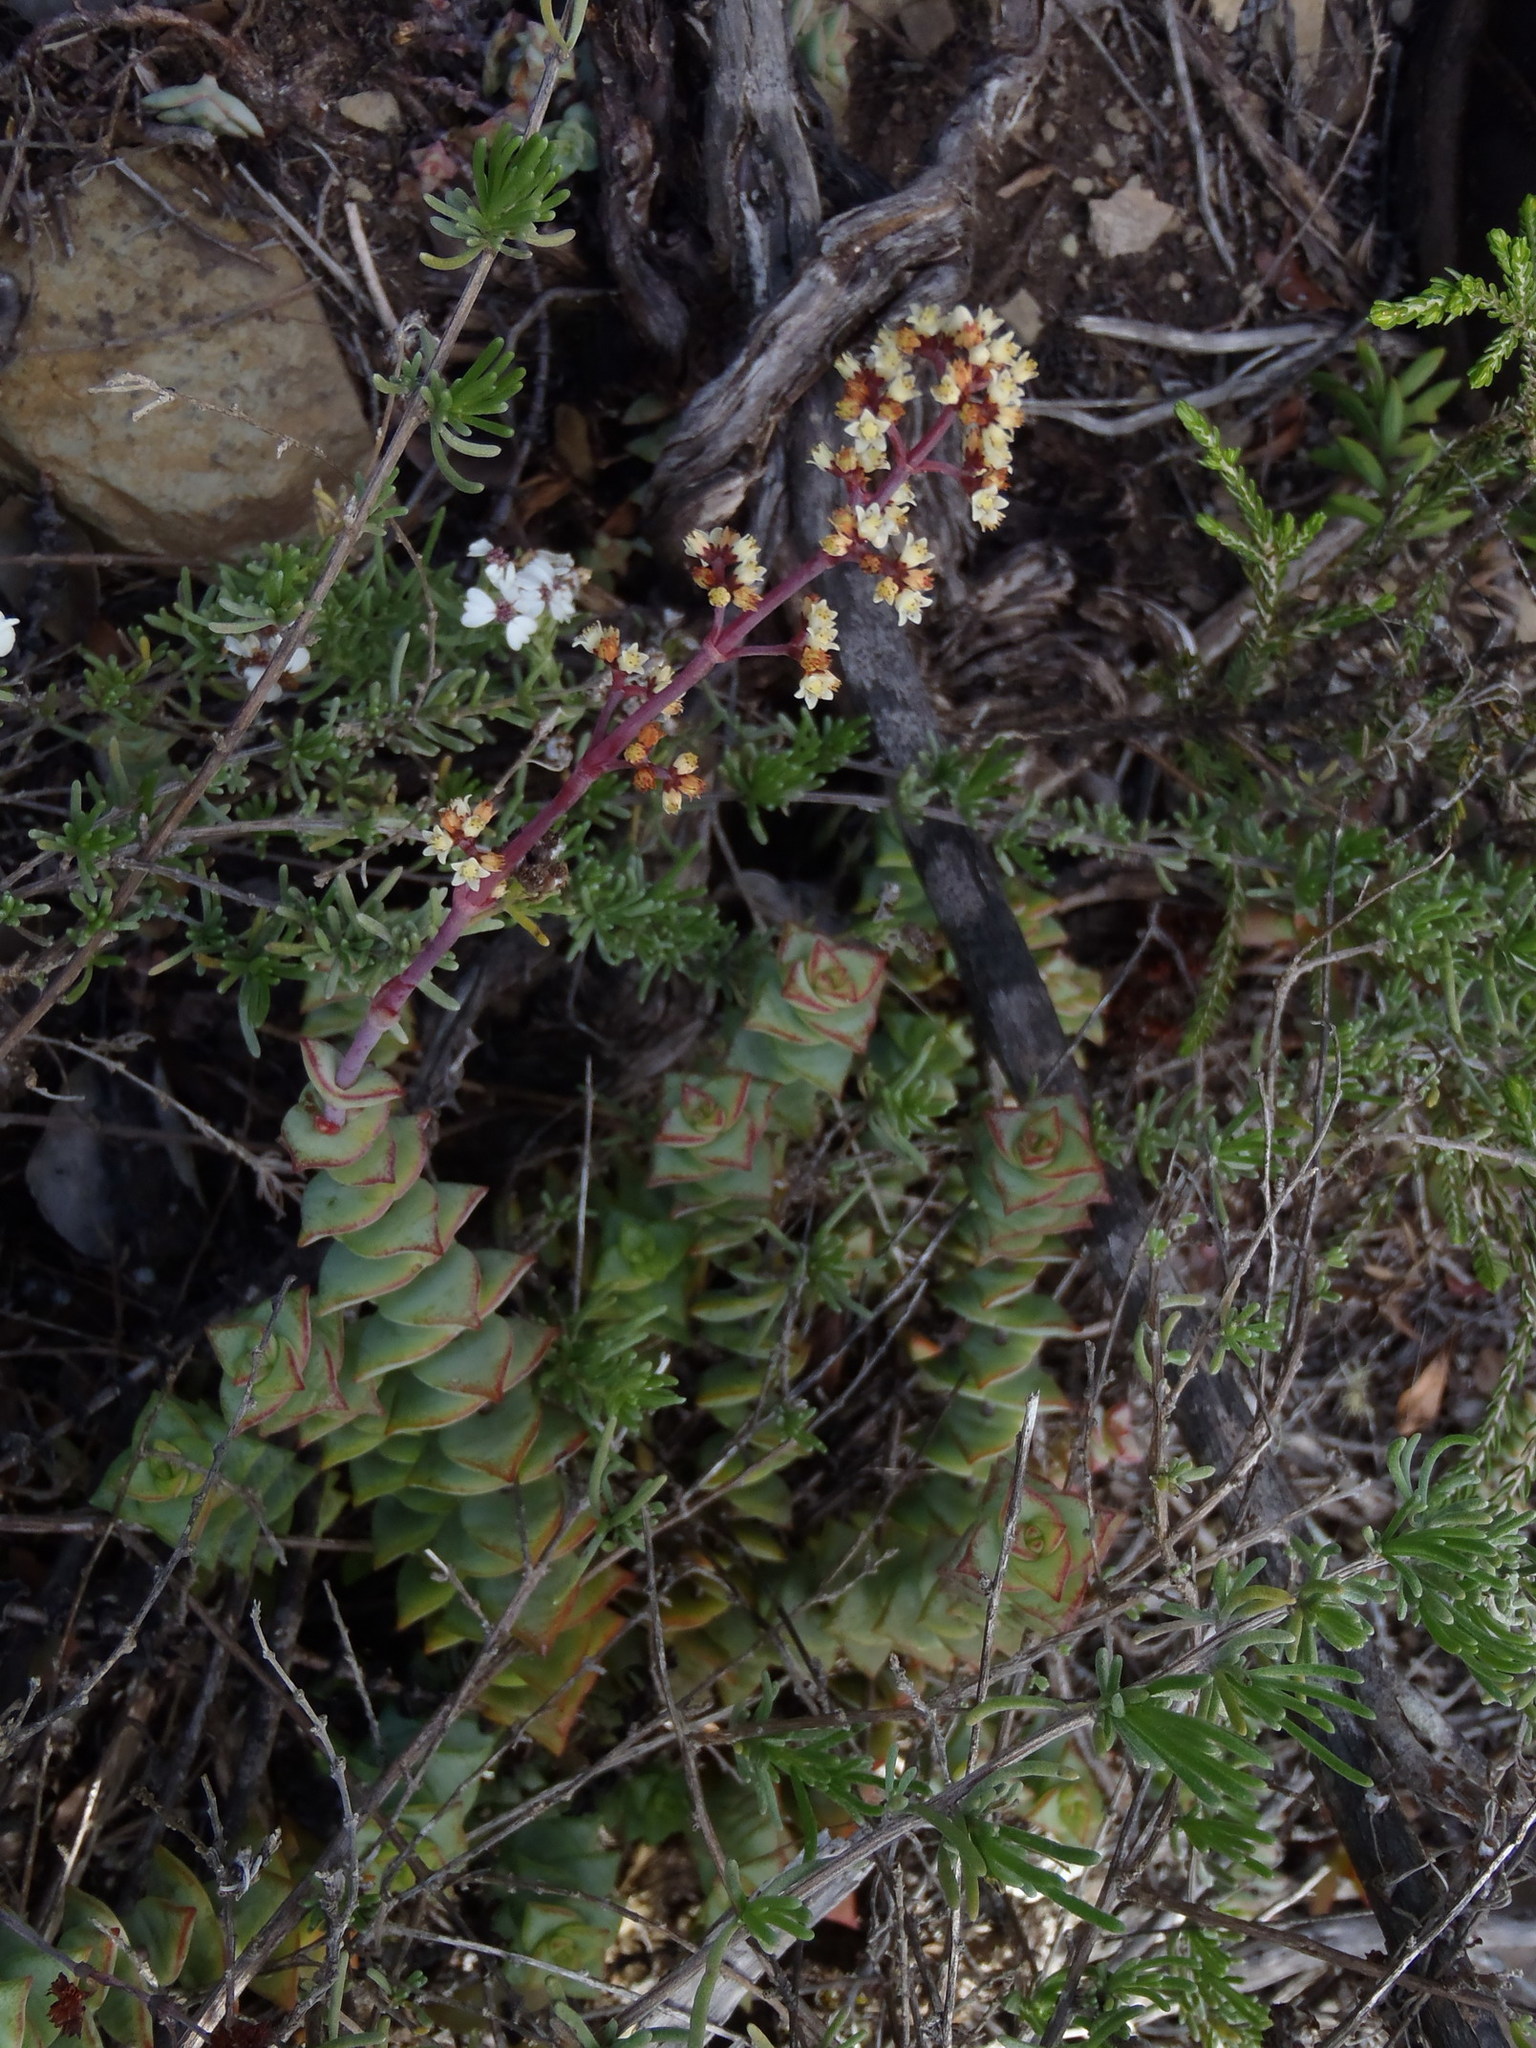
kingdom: Plantae
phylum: Tracheophyta
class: Magnoliopsida
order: Saxifragales
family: Crassulaceae
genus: Crassula
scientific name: Crassula perforata
